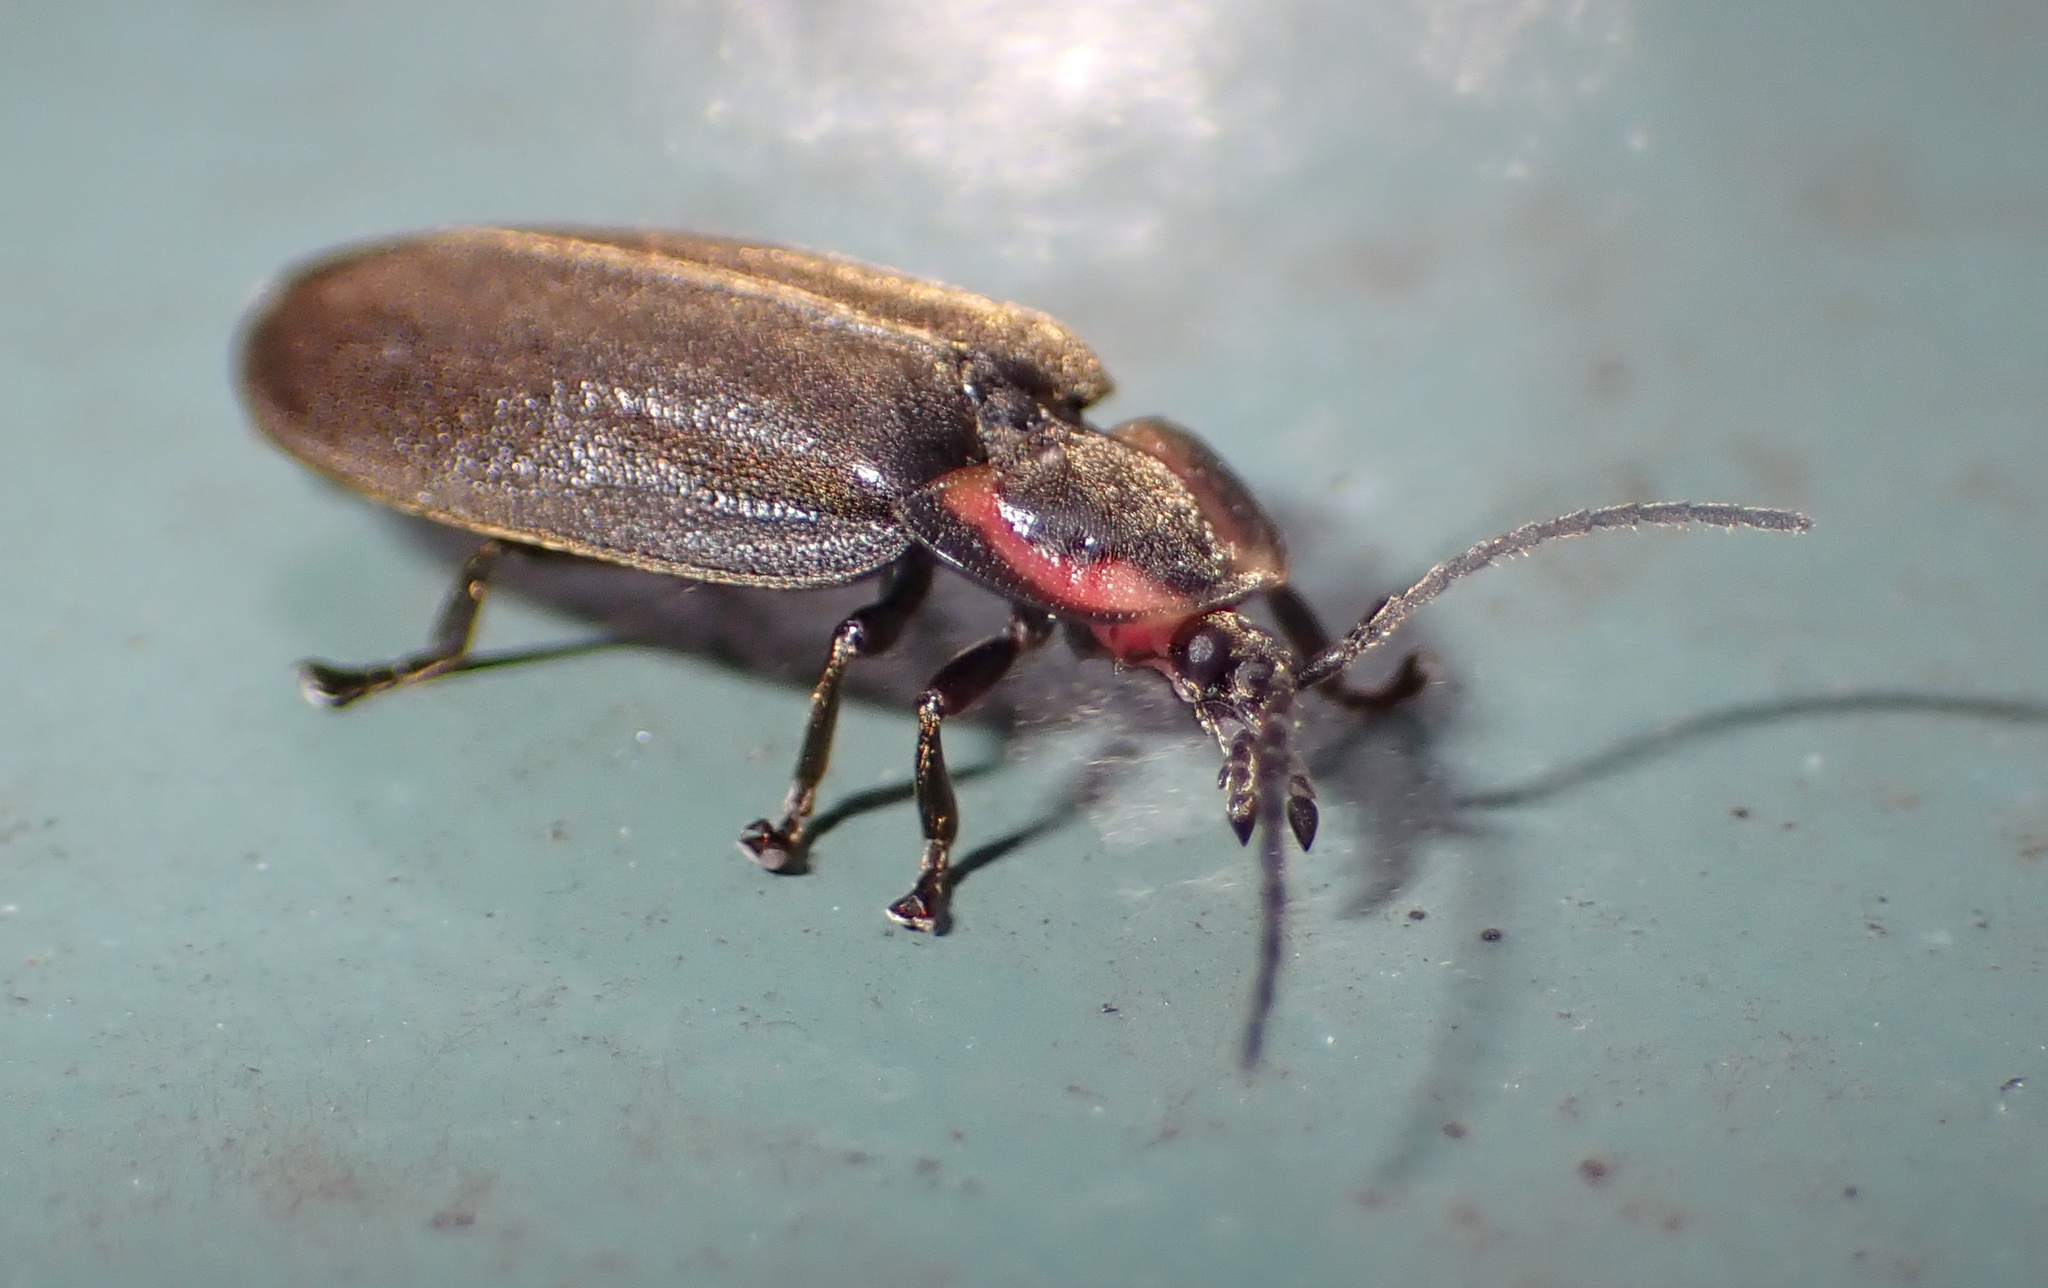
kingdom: Animalia
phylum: Arthropoda
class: Insecta
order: Coleoptera
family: Lampyridae
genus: Photinus
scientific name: Photinus corrusca
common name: Winter firefly
